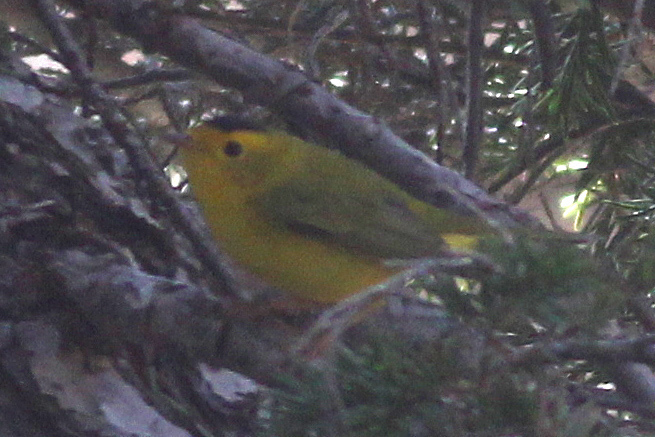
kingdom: Animalia
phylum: Chordata
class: Aves
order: Passeriformes
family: Parulidae
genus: Cardellina
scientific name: Cardellina pusilla
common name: Wilson's warbler
